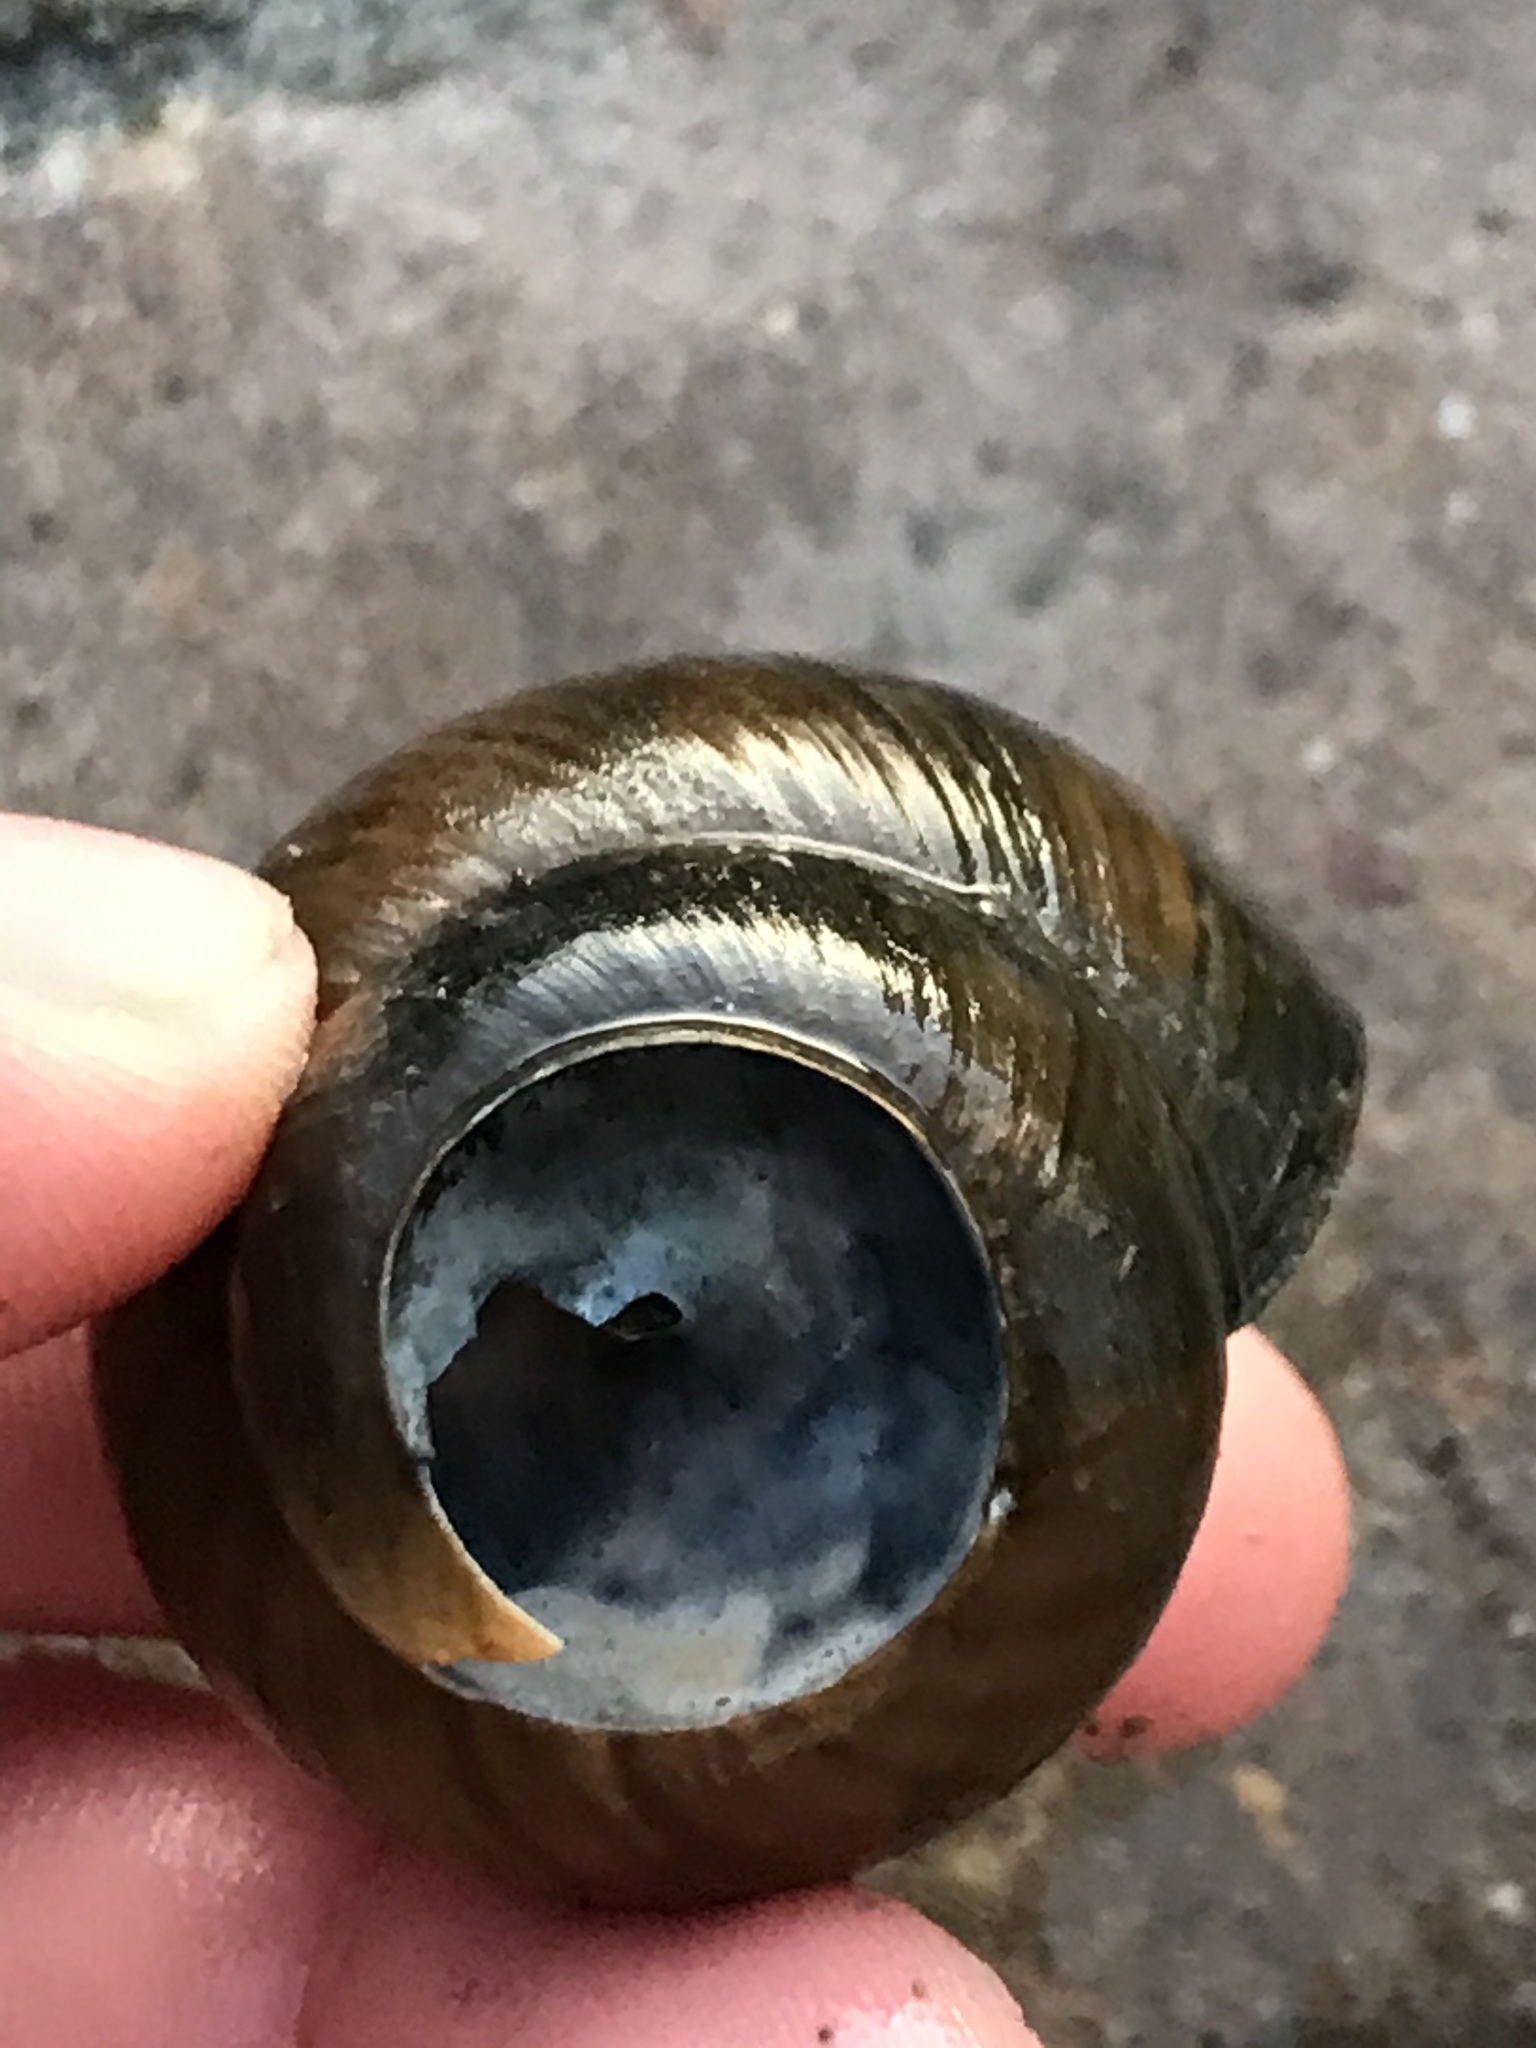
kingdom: Animalia
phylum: Mollusca
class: Gastropoda
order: Architaenioglossa
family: Viviparidae
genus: Cipangopaludina
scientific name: Cipangopaludina chinensis
